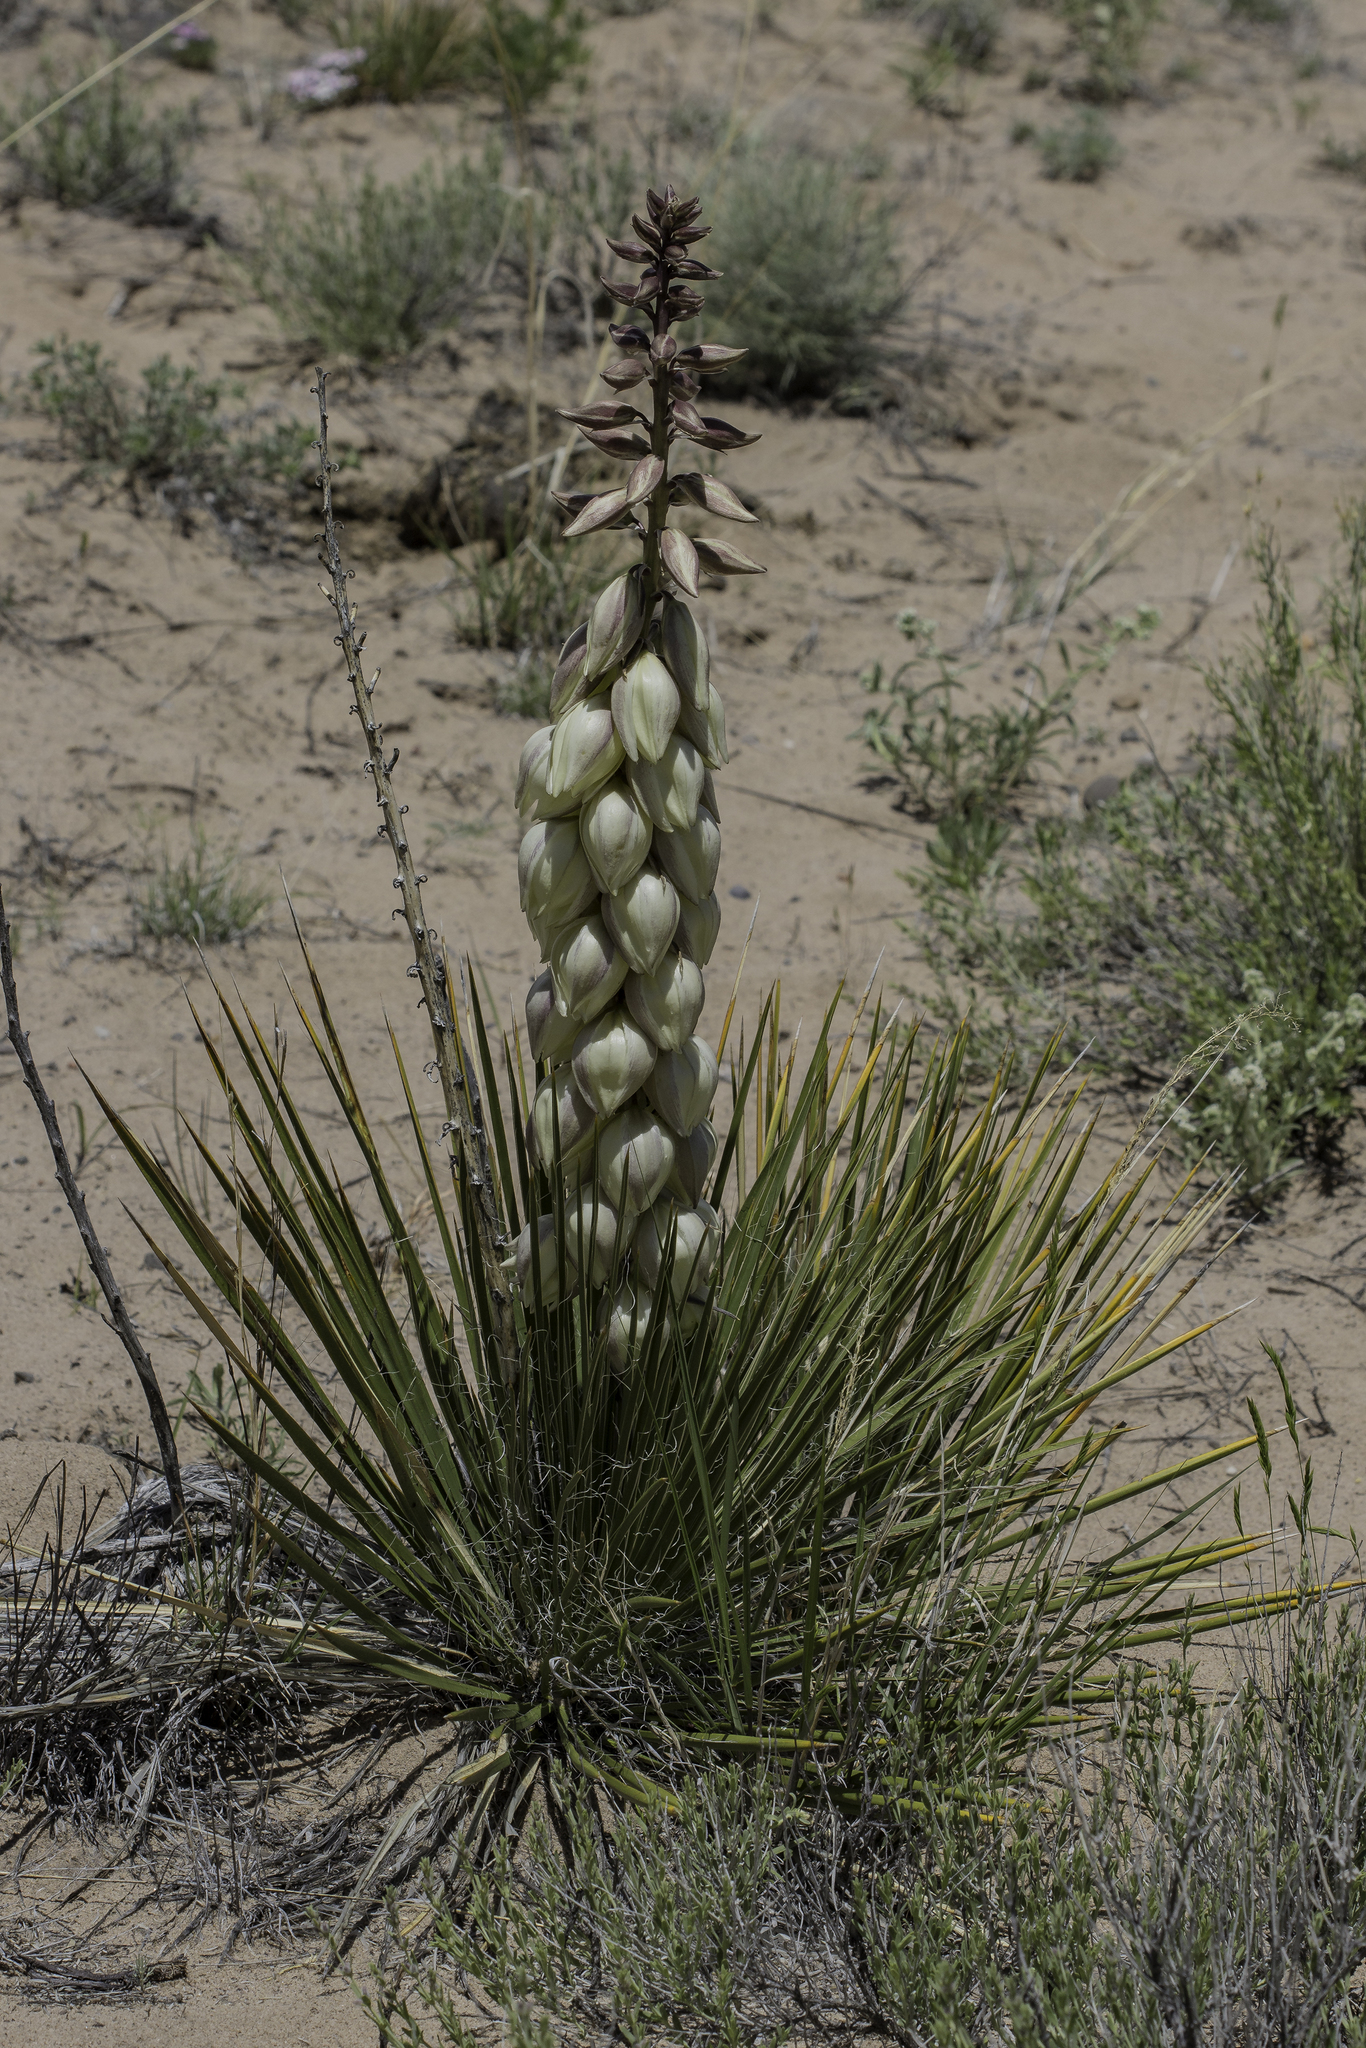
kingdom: Plantae
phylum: Tracheophyta
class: Liliopsida
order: Asparagales
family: Asparagaceae
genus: Yucca
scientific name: Yucca baileyi
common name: Alpine yucca
